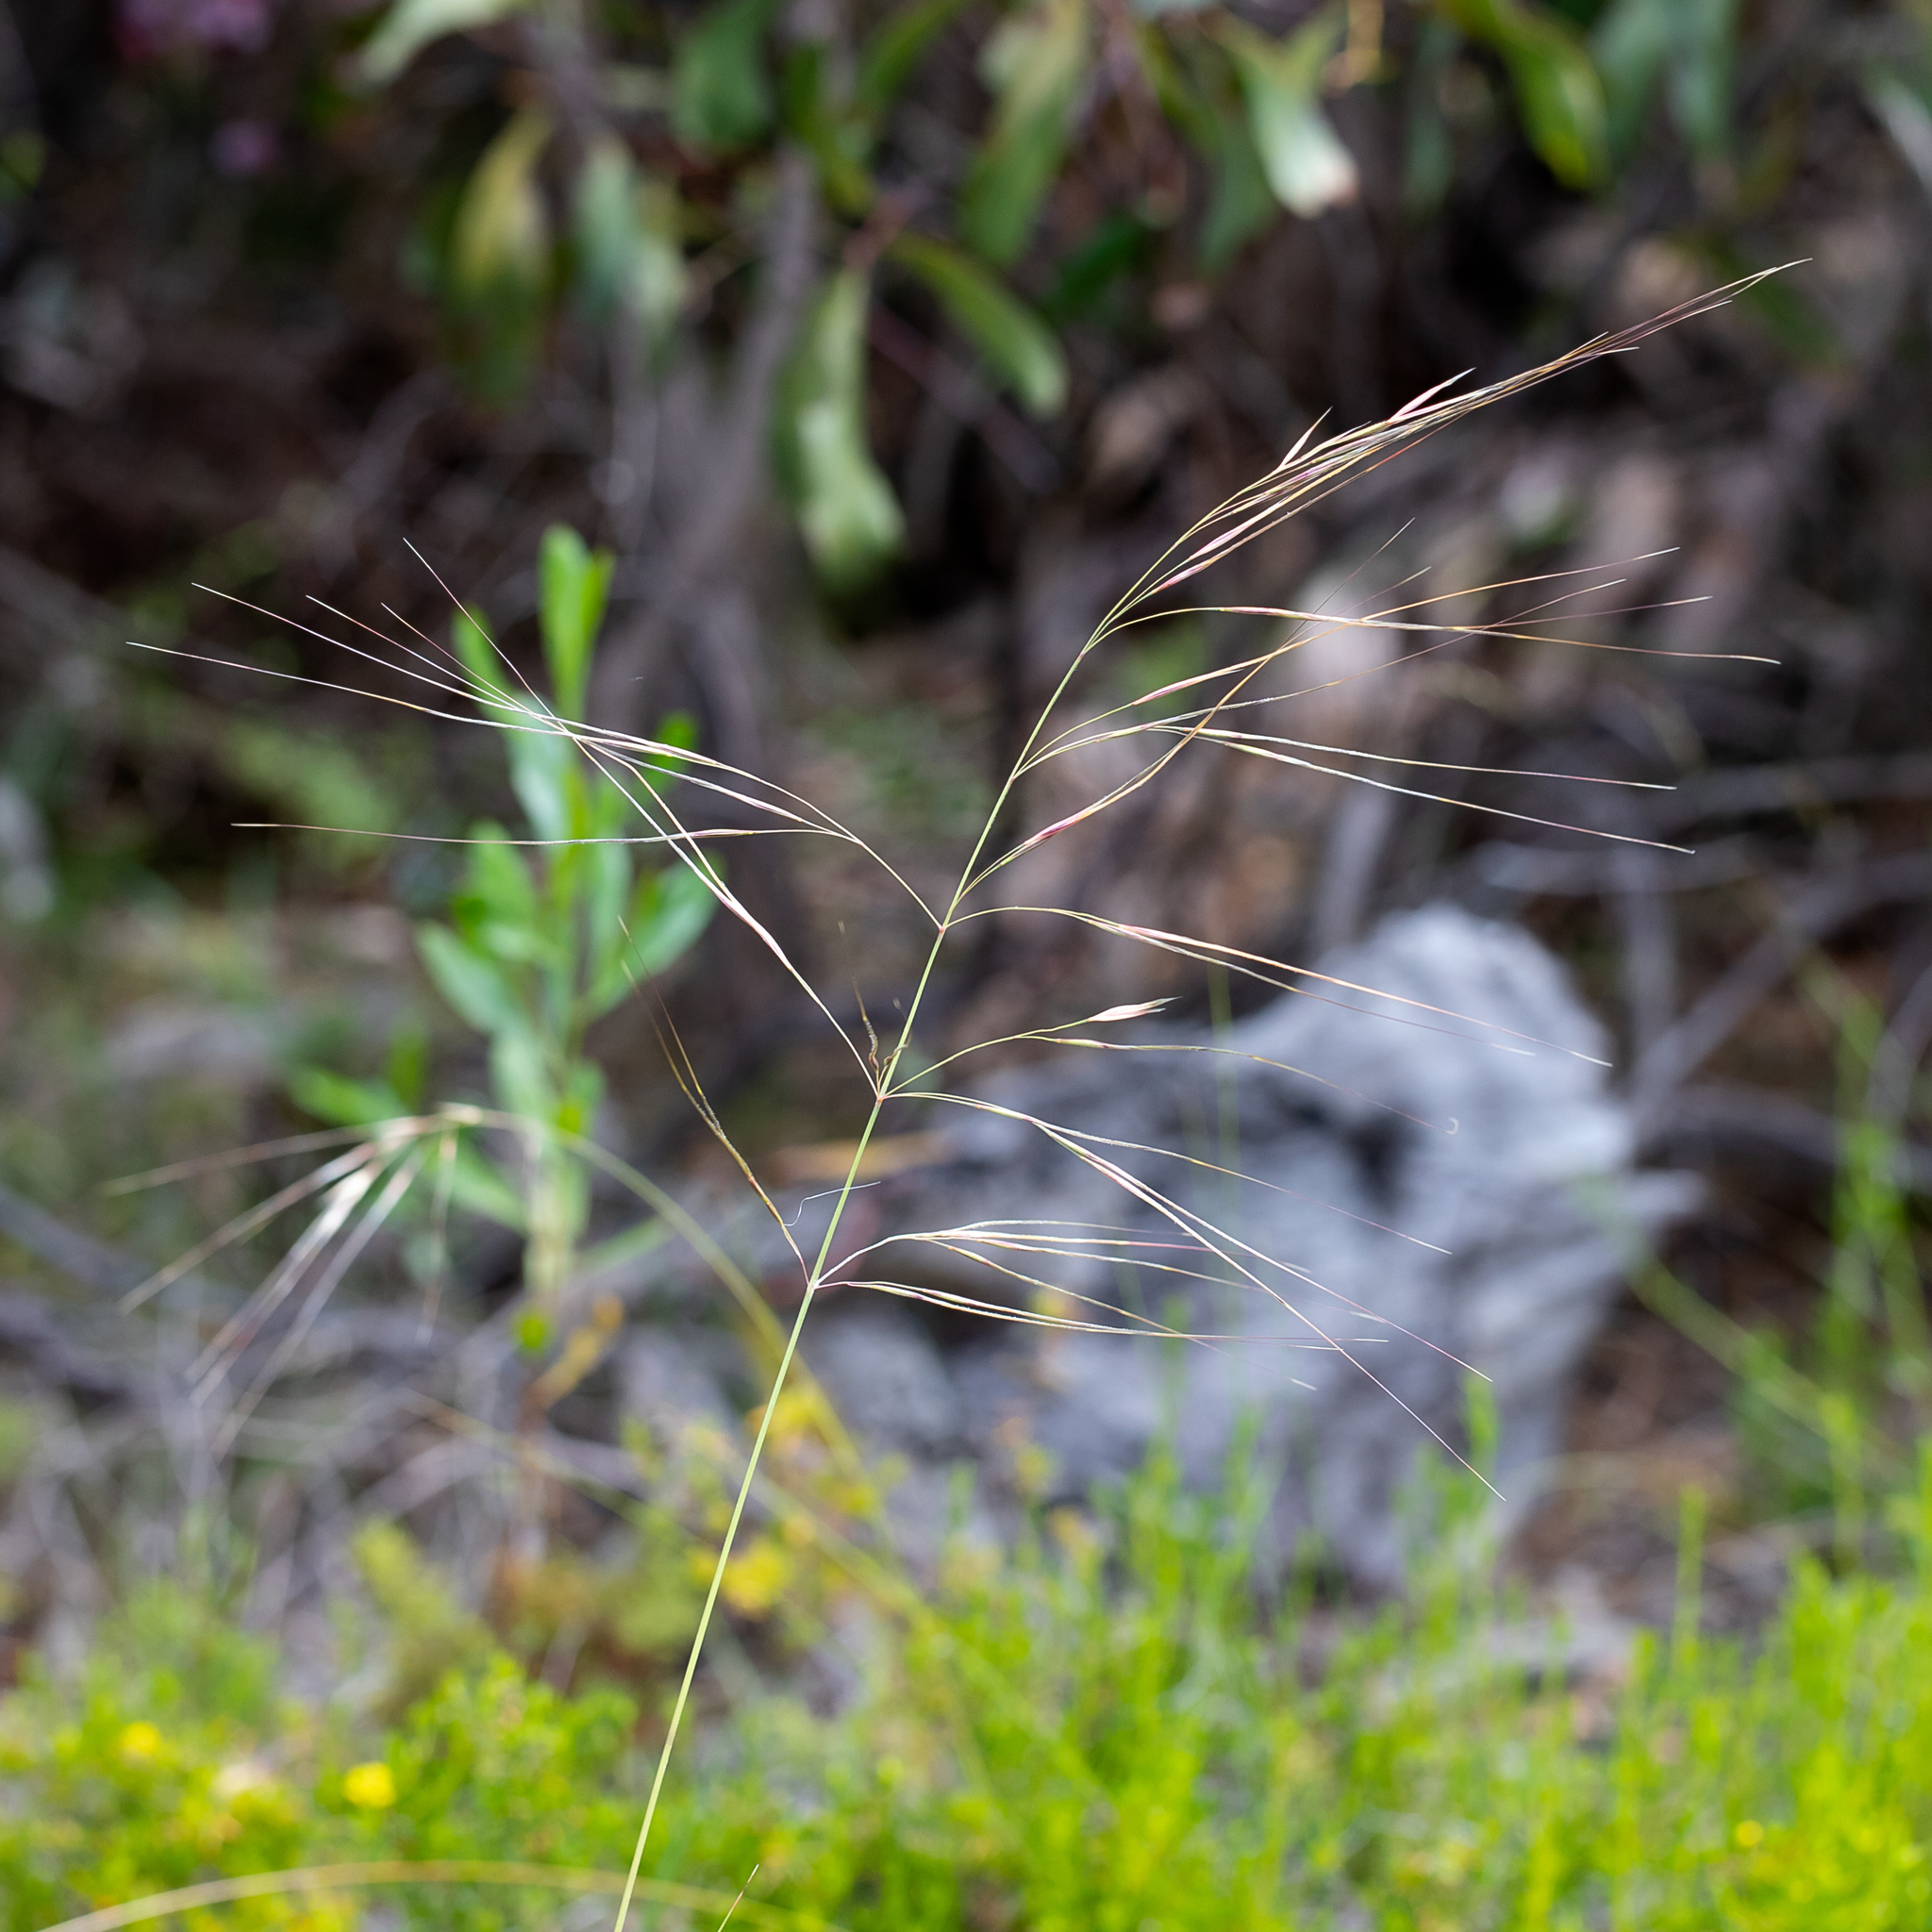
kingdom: Plantae
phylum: Tracheophyta
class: Liliopsida
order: Poales
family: Poaceae
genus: Austrostipa
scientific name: Austrostipa semibarbata
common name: Fibrous spear grass
